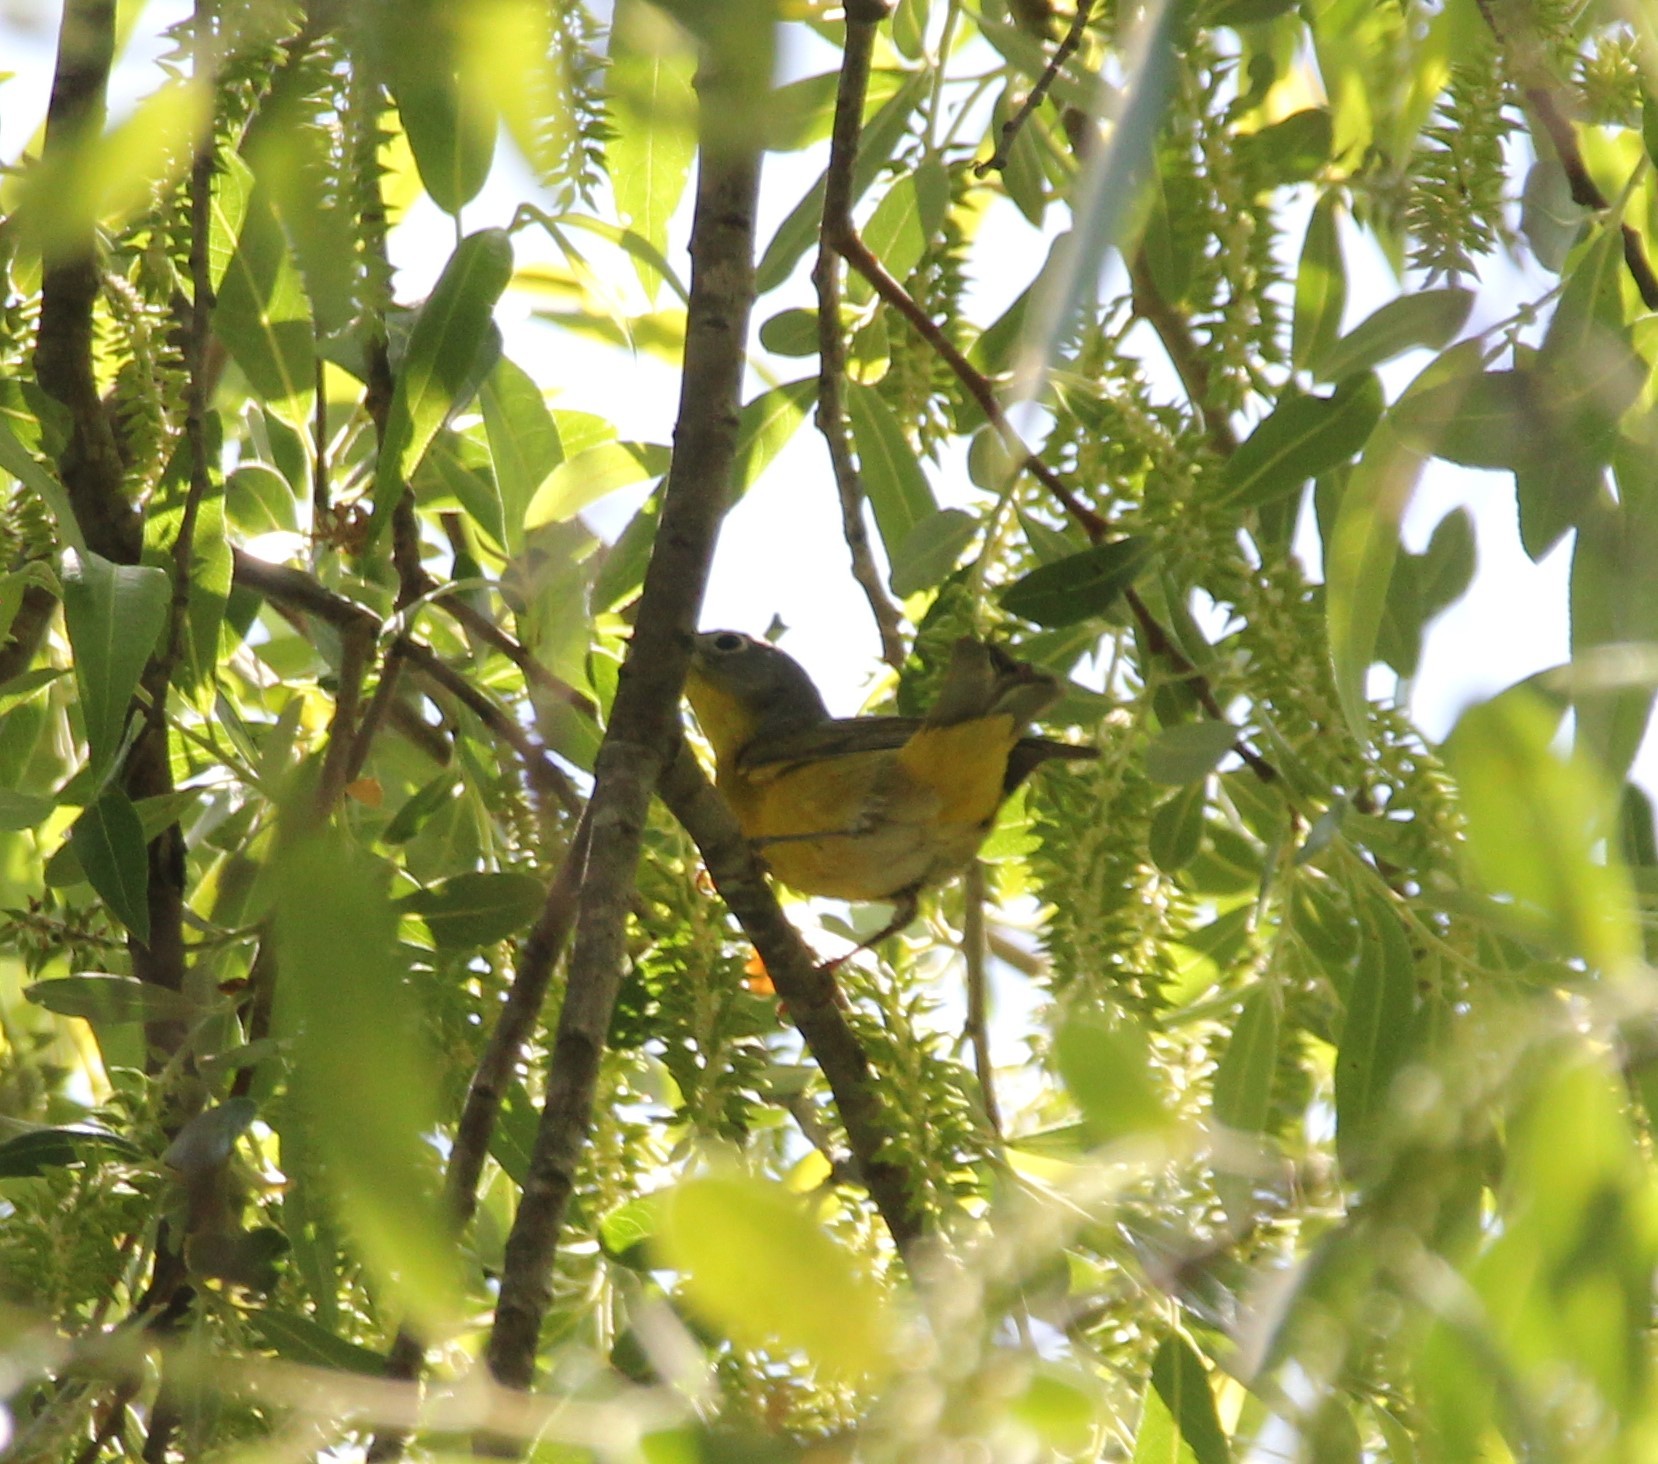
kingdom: Animalia
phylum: Chordata
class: Aves
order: Passeriformes
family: Parulidae
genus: Leiothlypis
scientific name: Leiothlypis ruficapilla
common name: Nashville warbler
